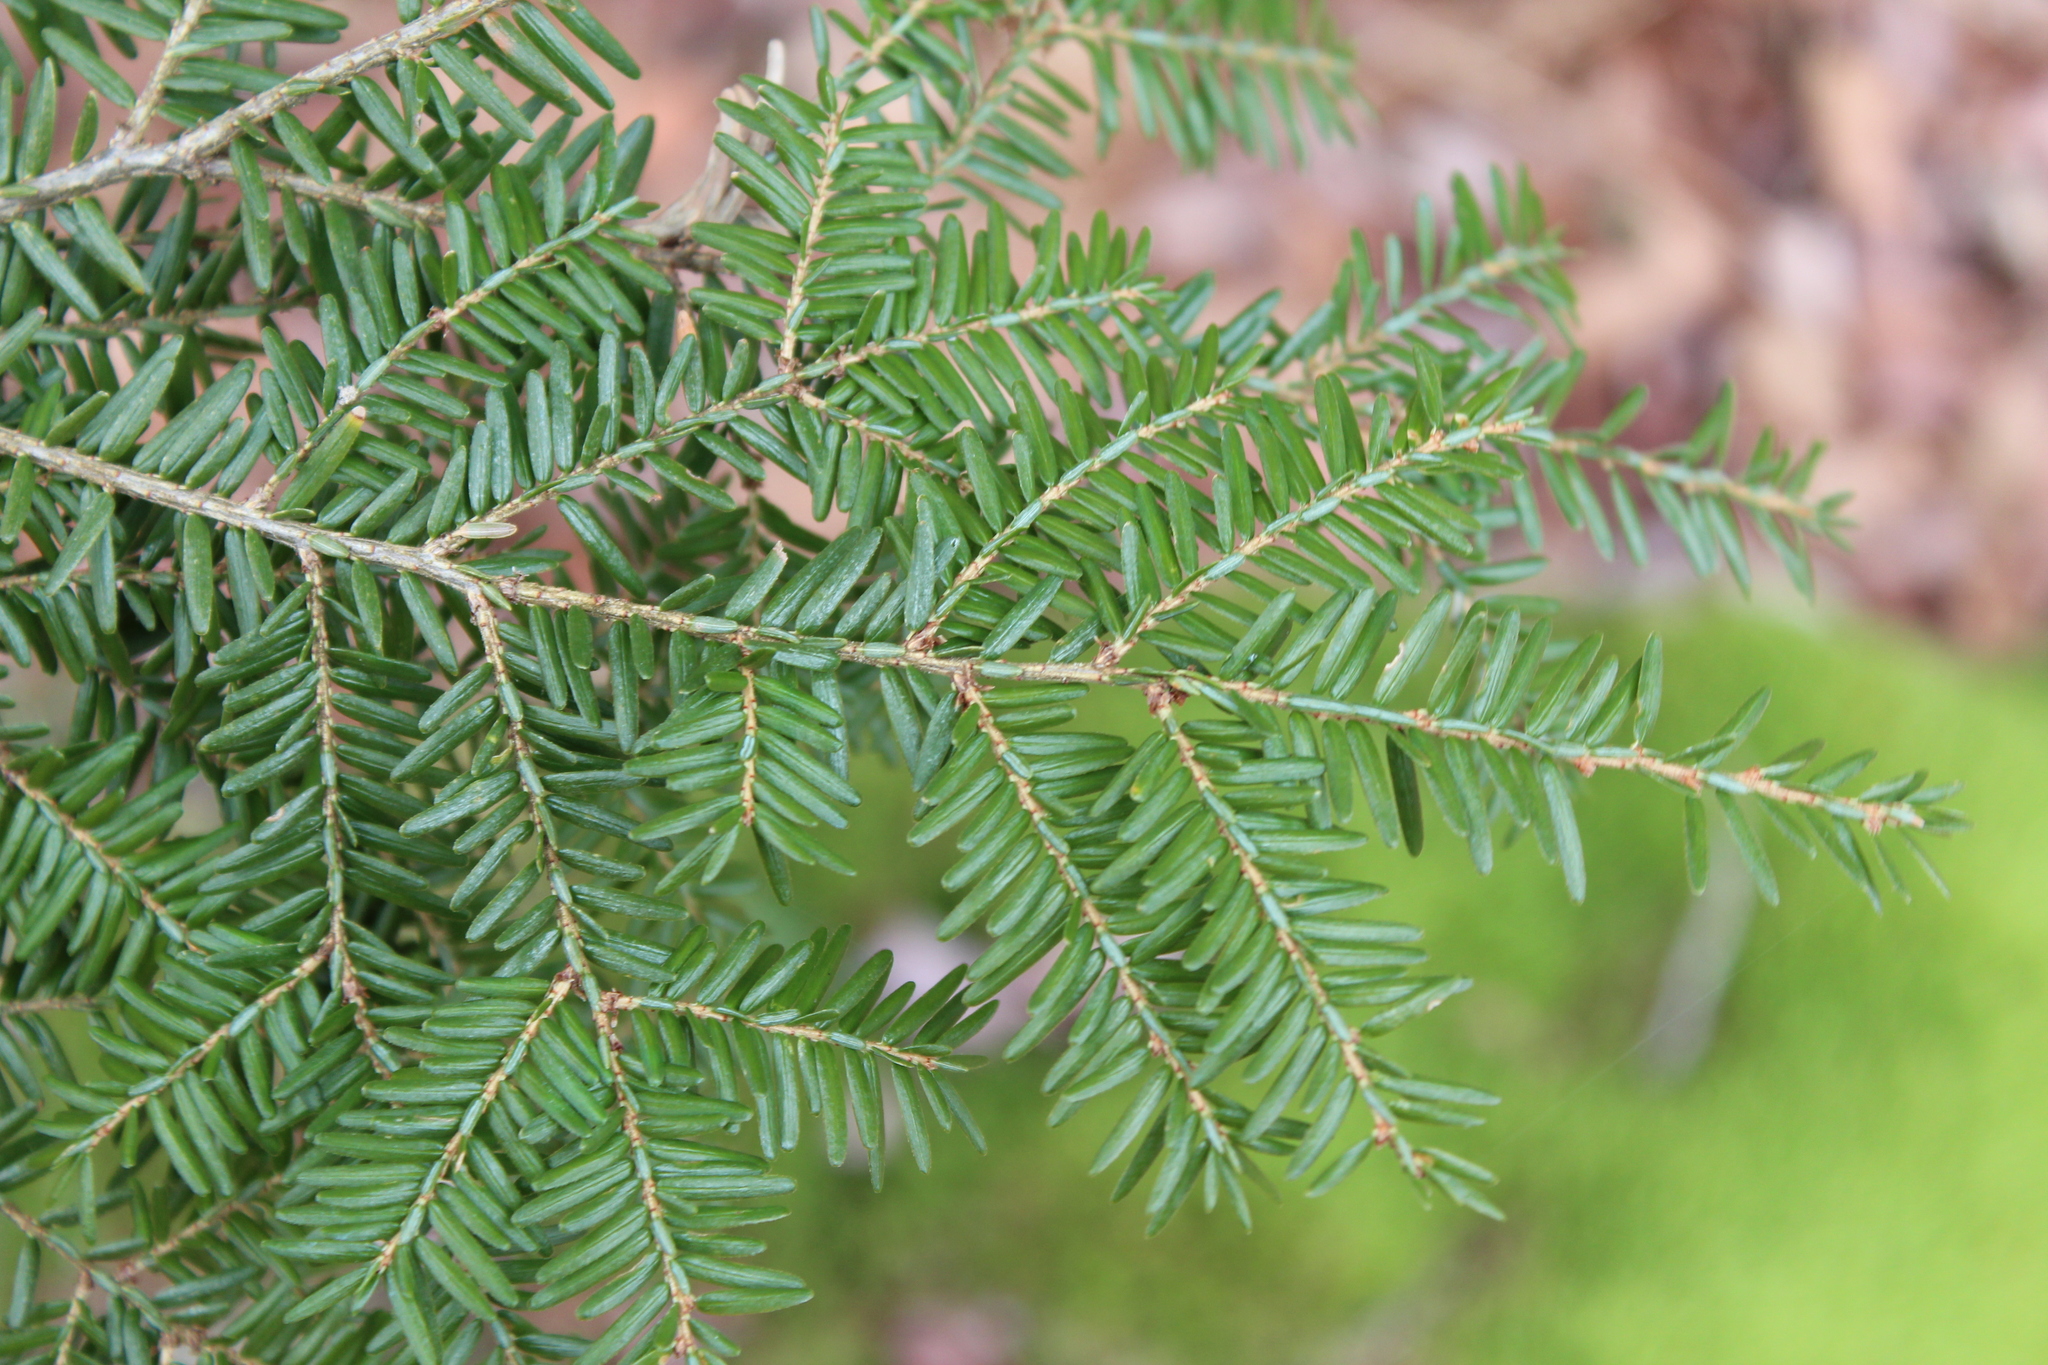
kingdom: Plantae
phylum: Tracheophyta
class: Pinopsida
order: Pinales
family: Pinaceae
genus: Tsuga
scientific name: Tsuga canadensis
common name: Eastern hemlock
